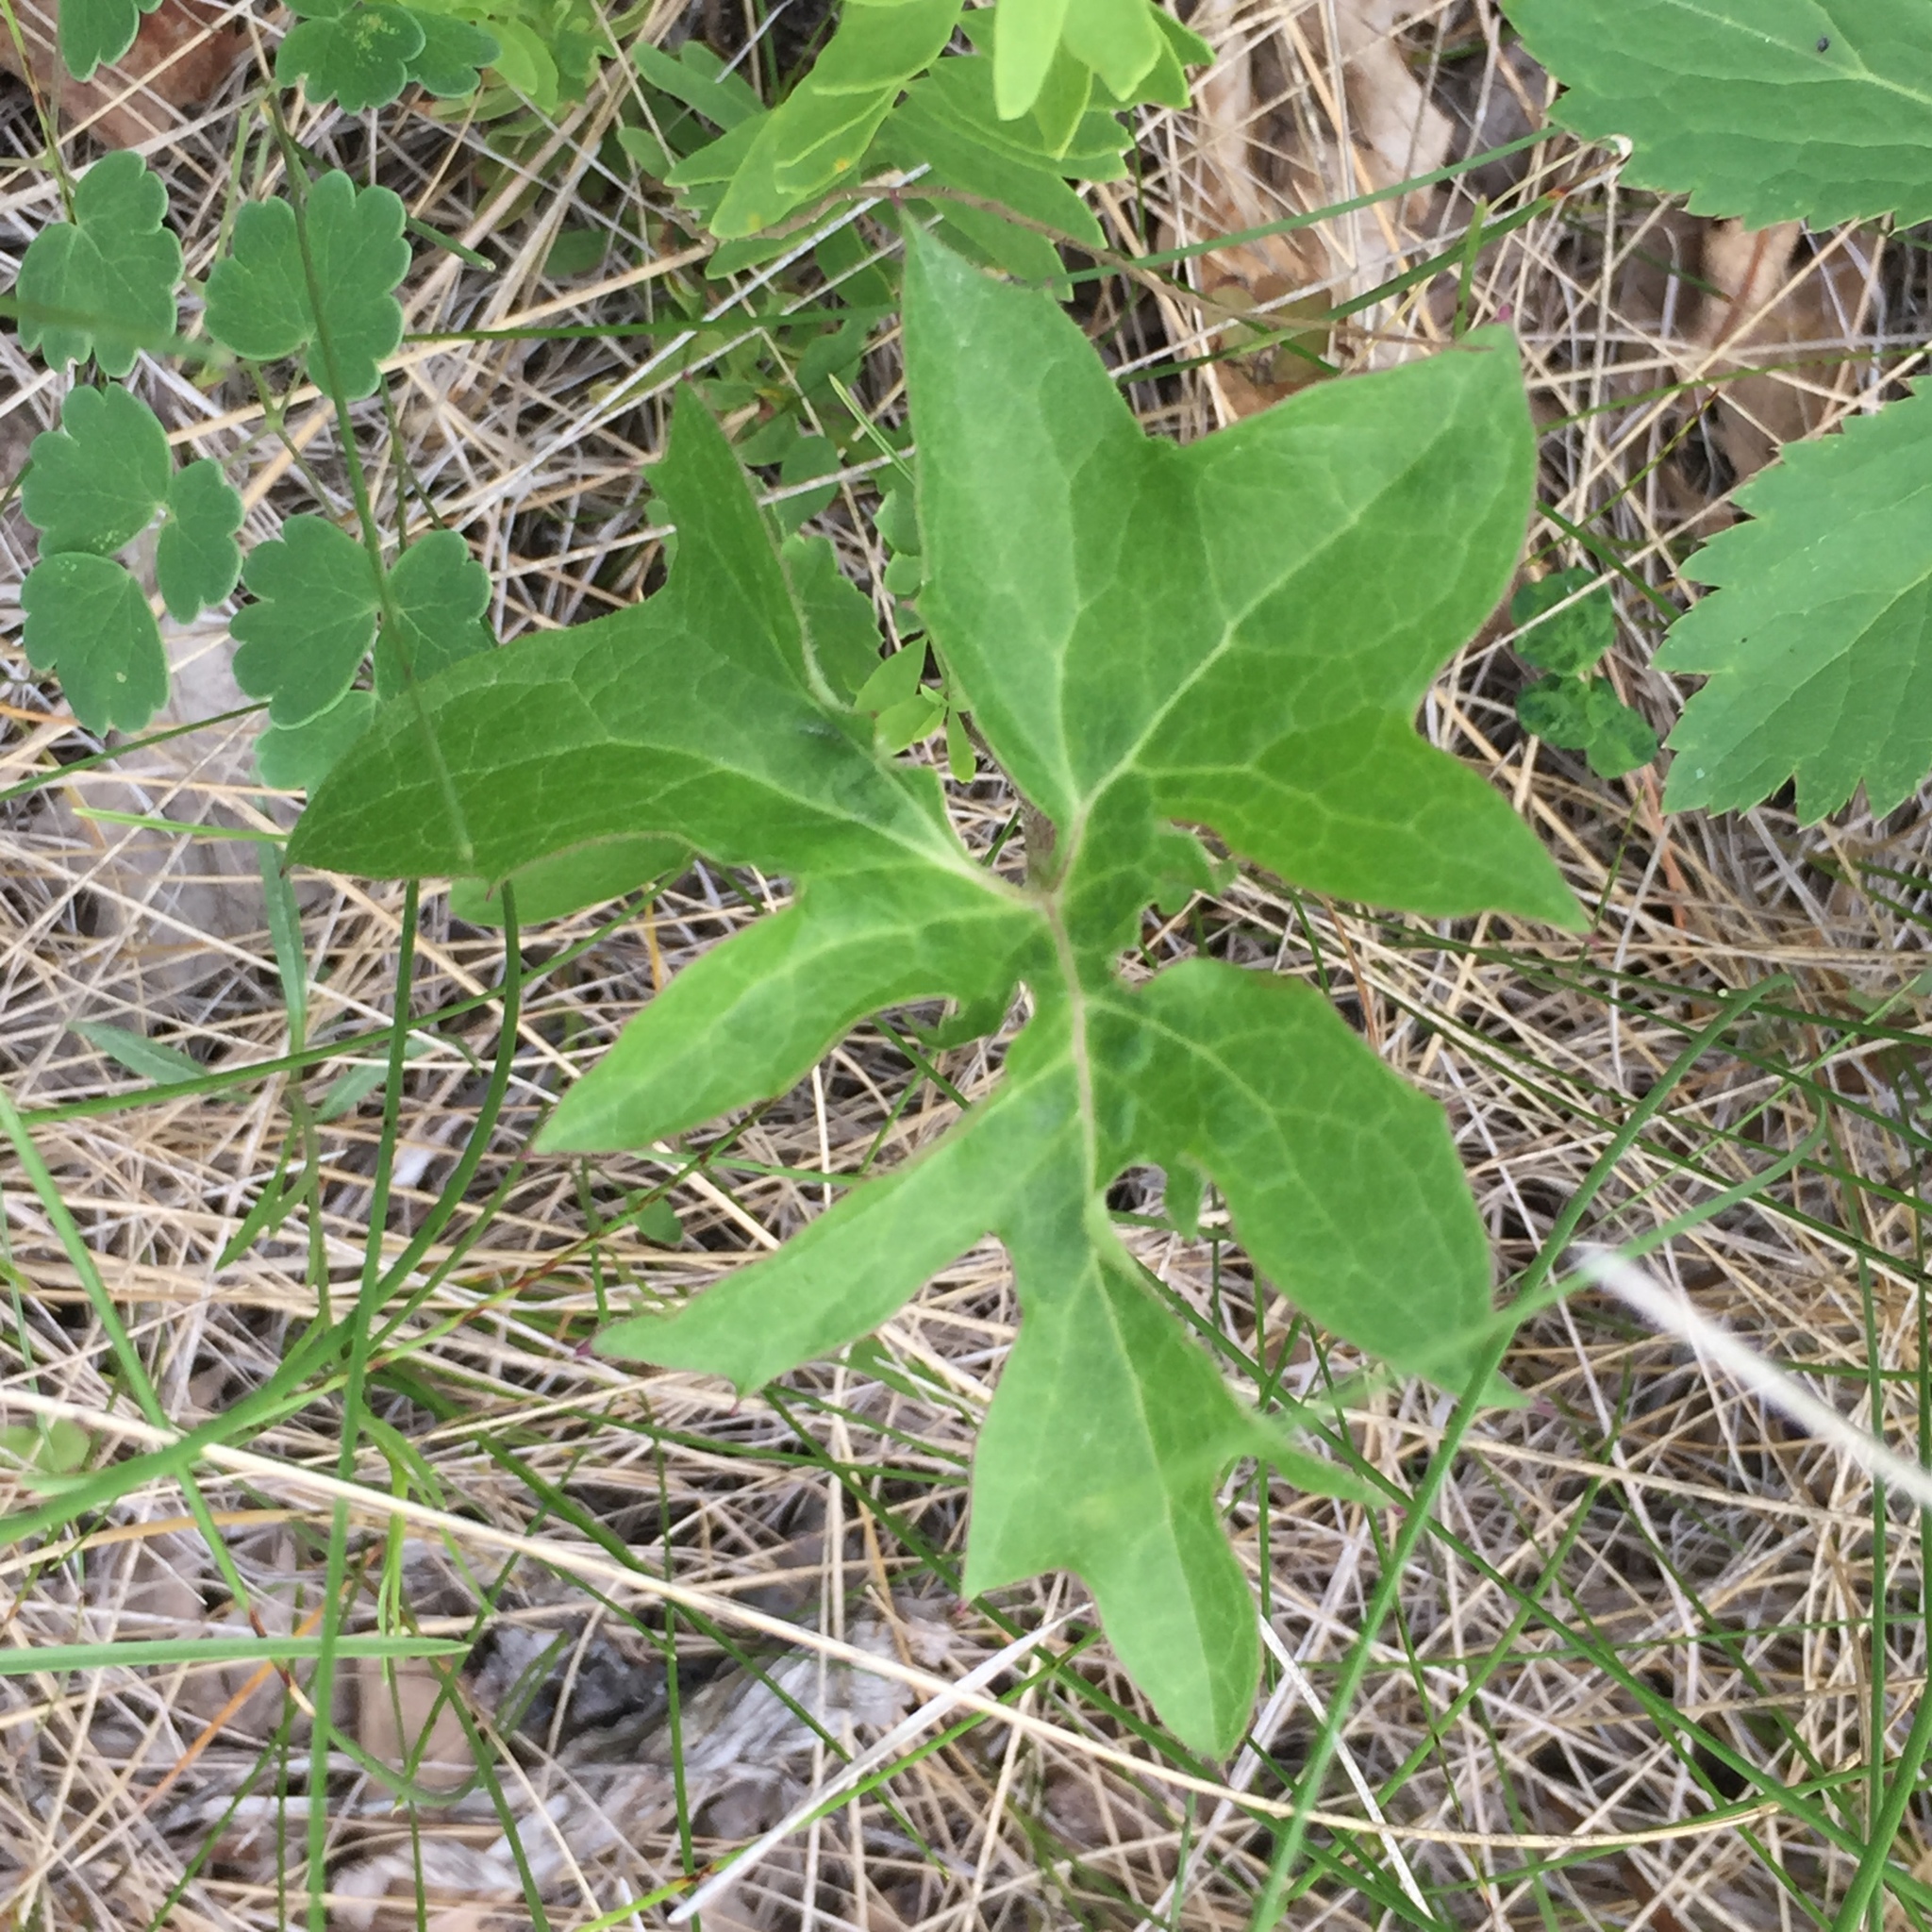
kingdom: Plantae
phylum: Tracheophyta
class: Magnoliopsida
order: Asterales
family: Asteraceae
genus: Nabalus
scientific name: Nabalus albus
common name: White rattlesnakeroot
